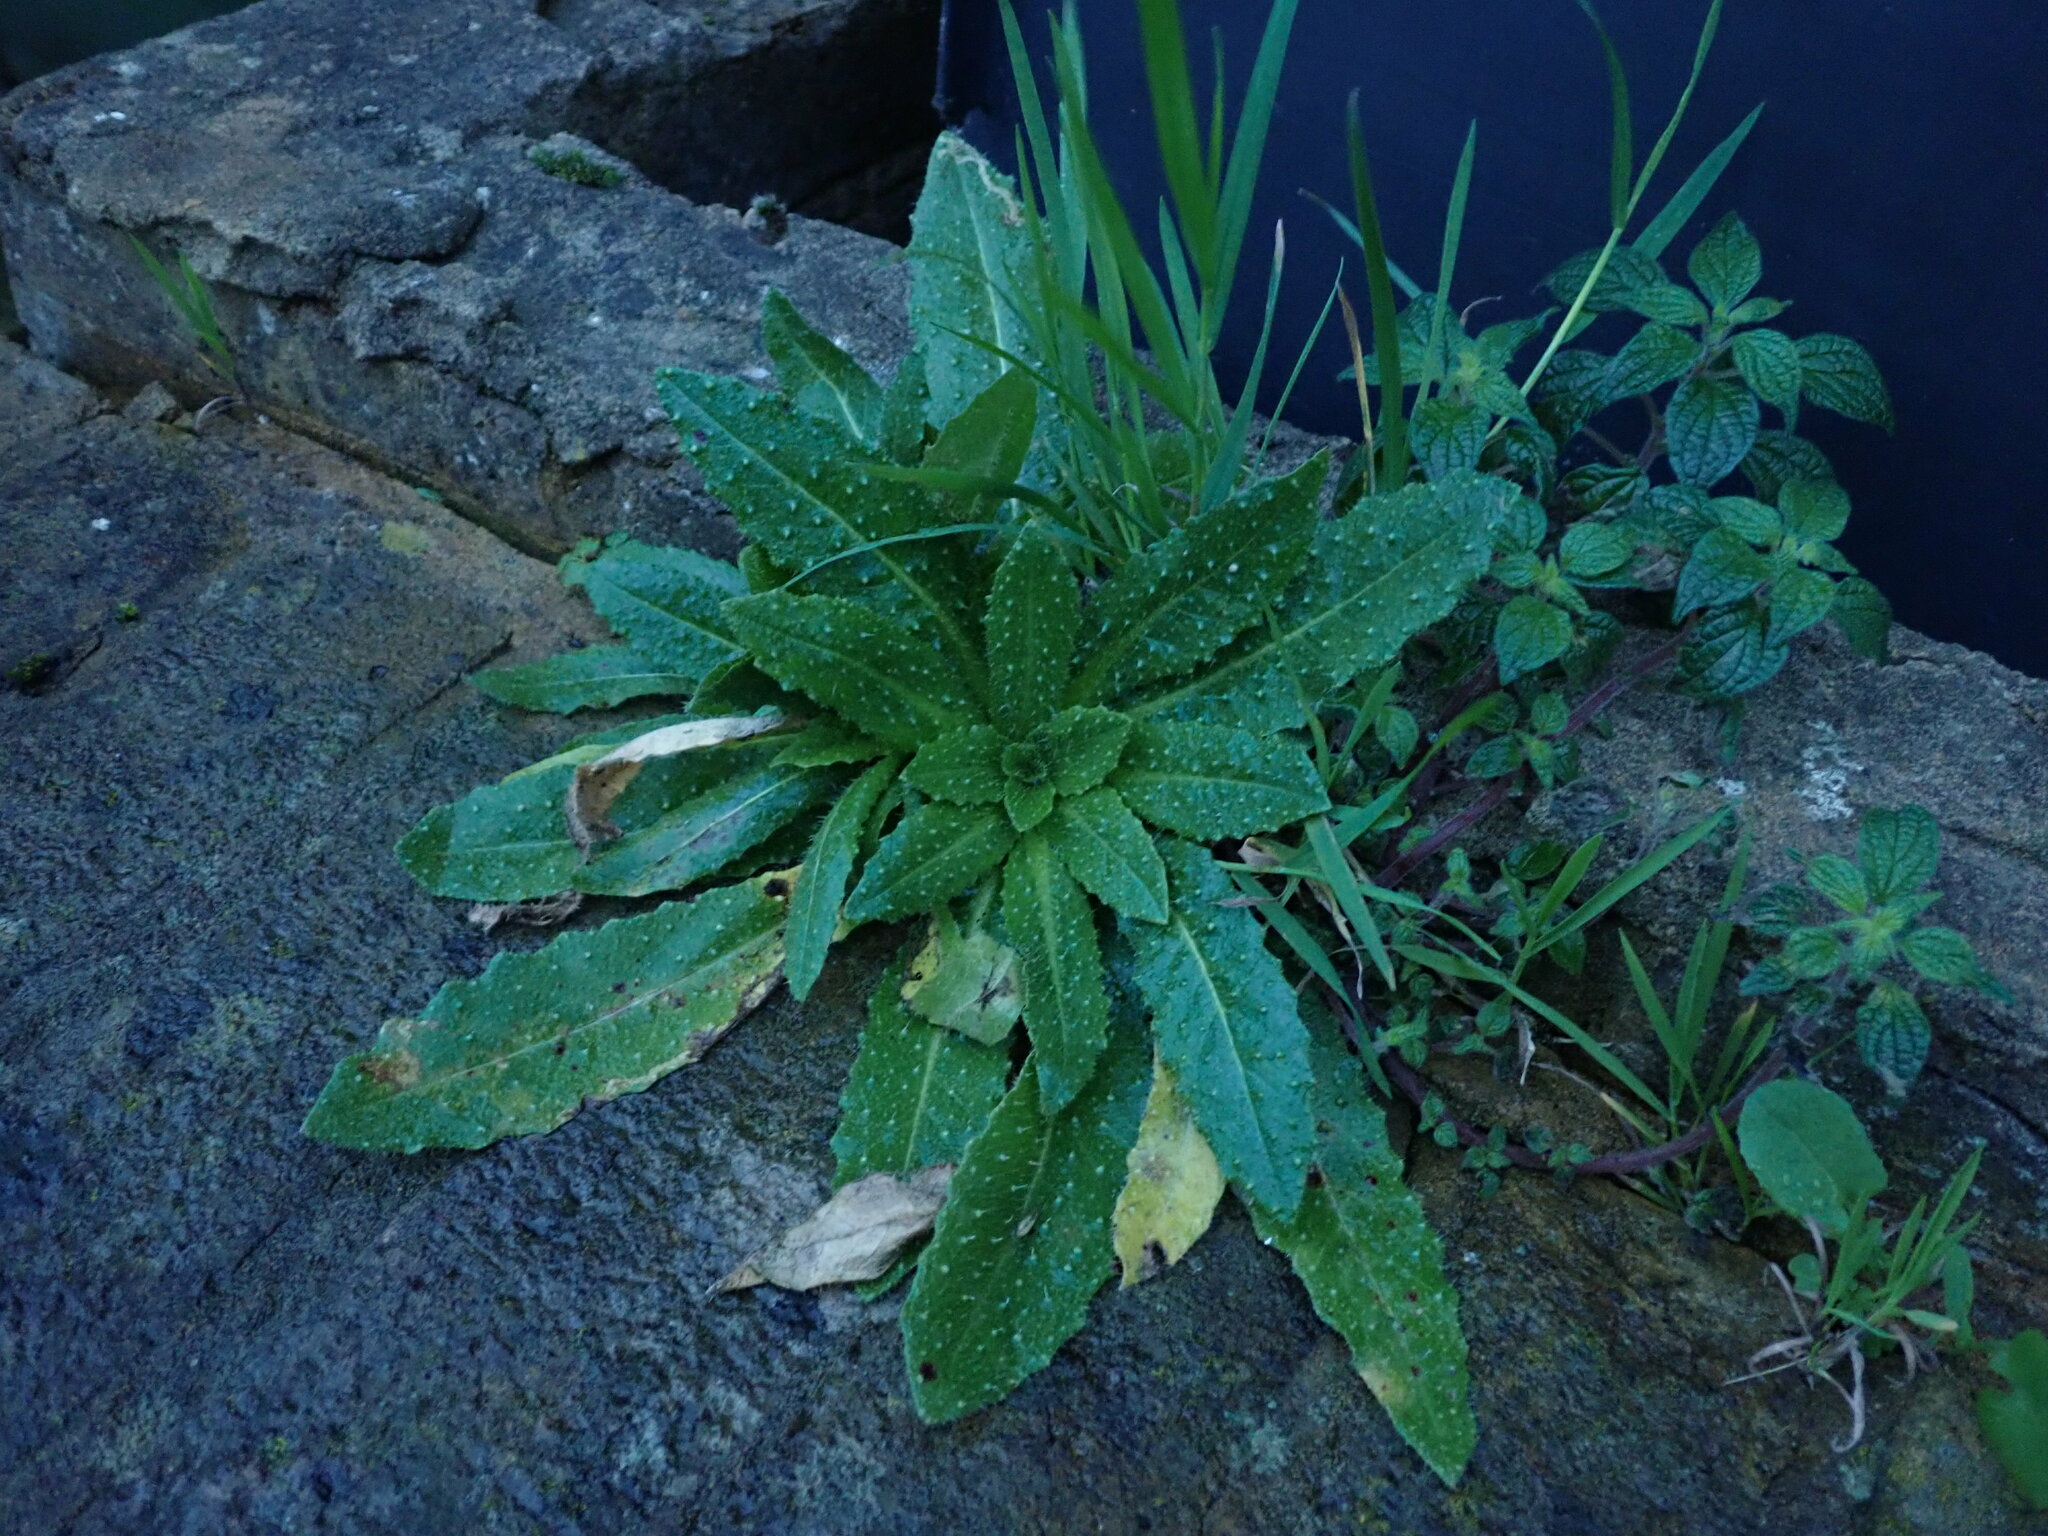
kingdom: Plantae
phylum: Tracheophyta
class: Magnoliopsida
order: Asterales
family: Asteraceae
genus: Helminthotheca
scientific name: Helminthotheca echioides
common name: Ox-tongue
